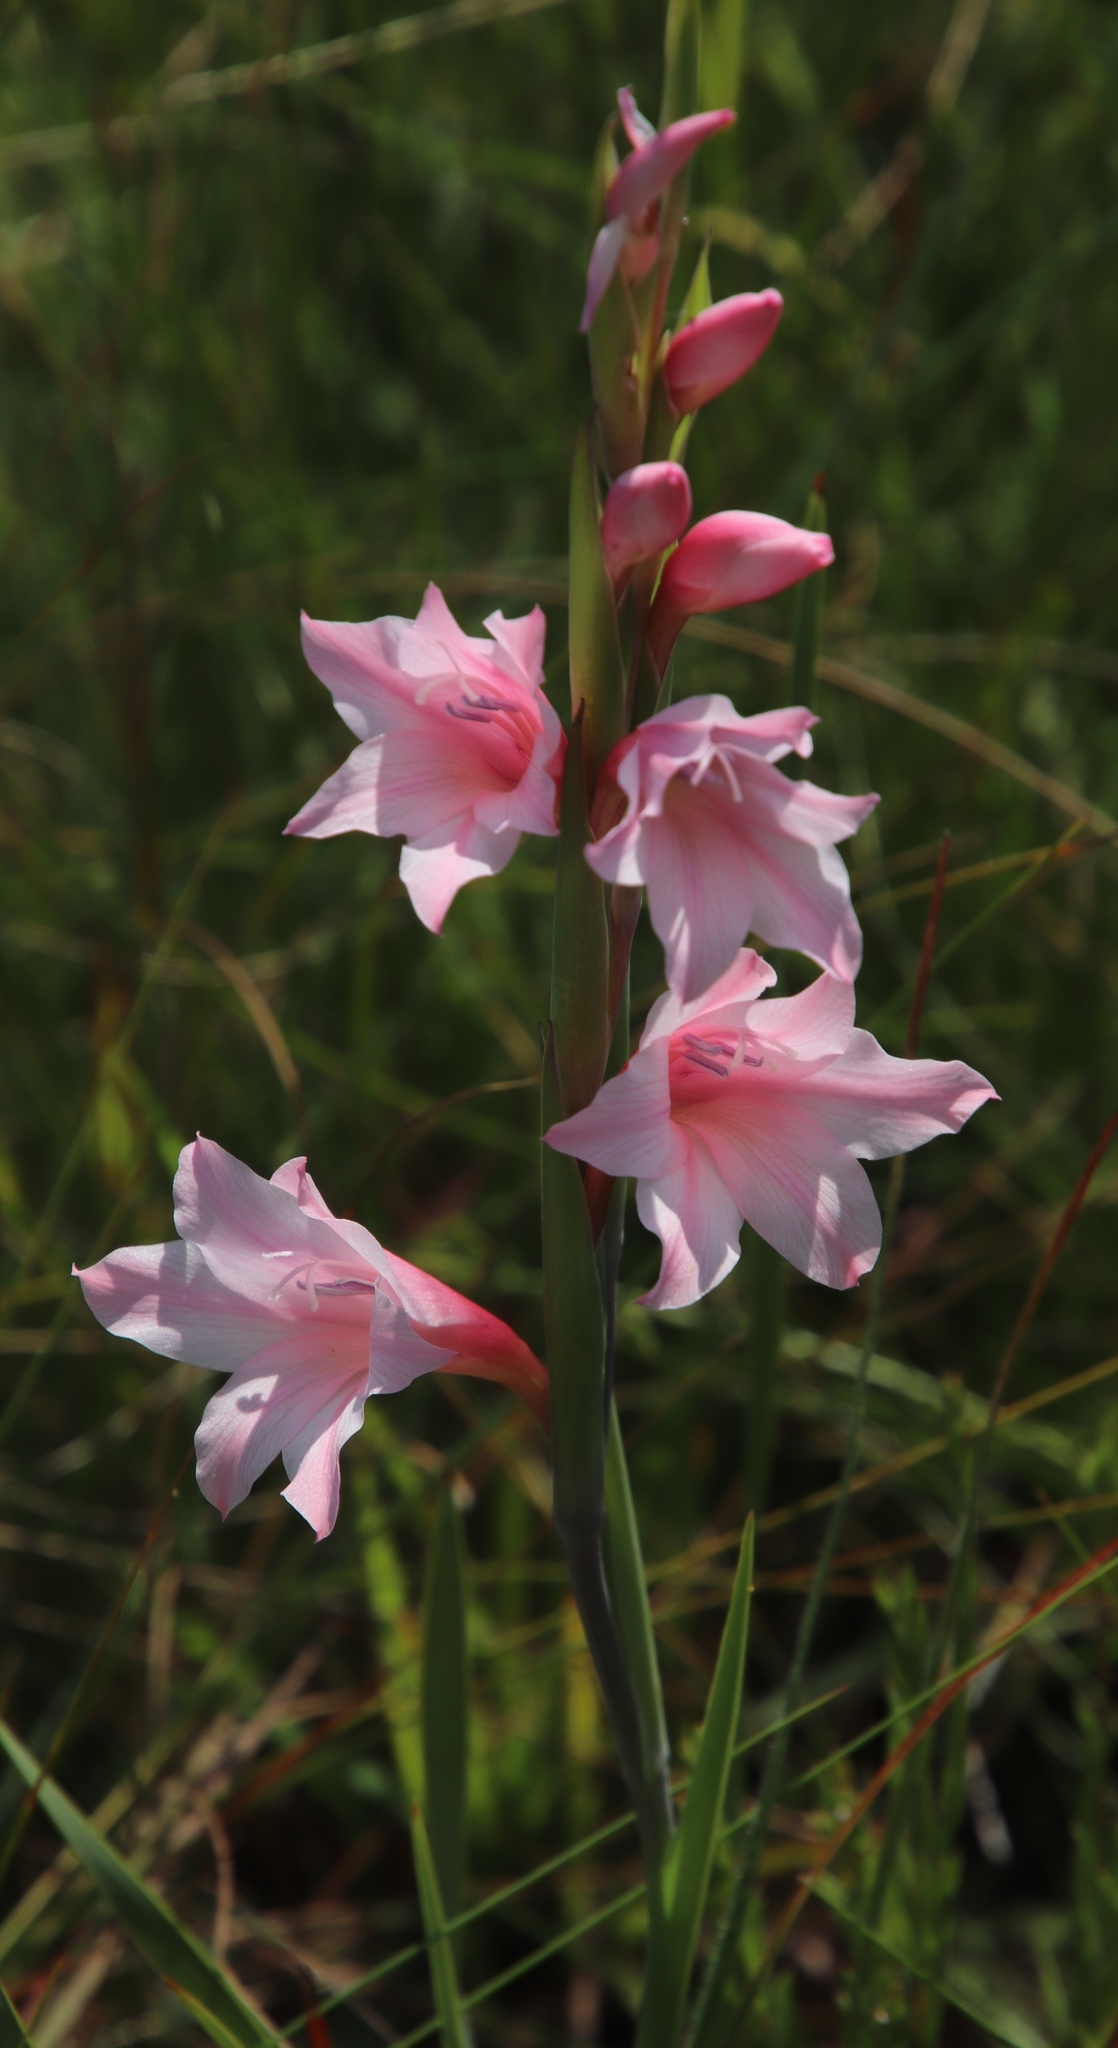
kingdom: Plantae
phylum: Tracheophyta
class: Liliopsida
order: Asparagales
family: Iridaceae
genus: Gladiolus
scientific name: Gladiolus varius
